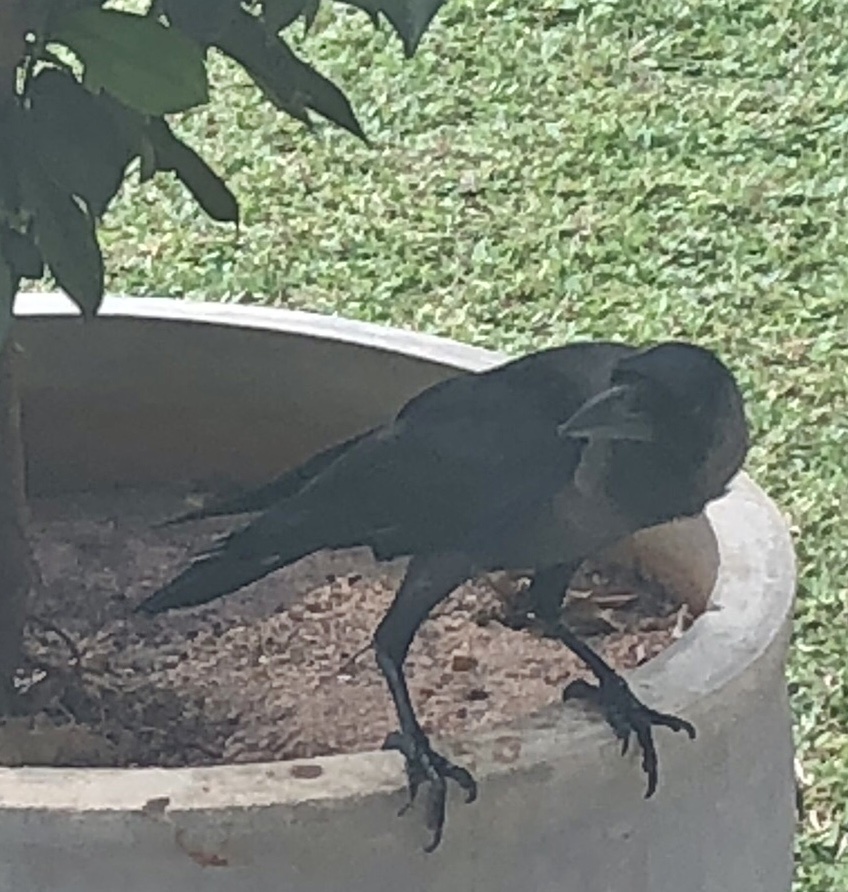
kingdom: Animalia
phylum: Chordata
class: Aves
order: Passeriformes
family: Corvidae
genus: Corvus
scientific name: Corvus splendens
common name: House crow
